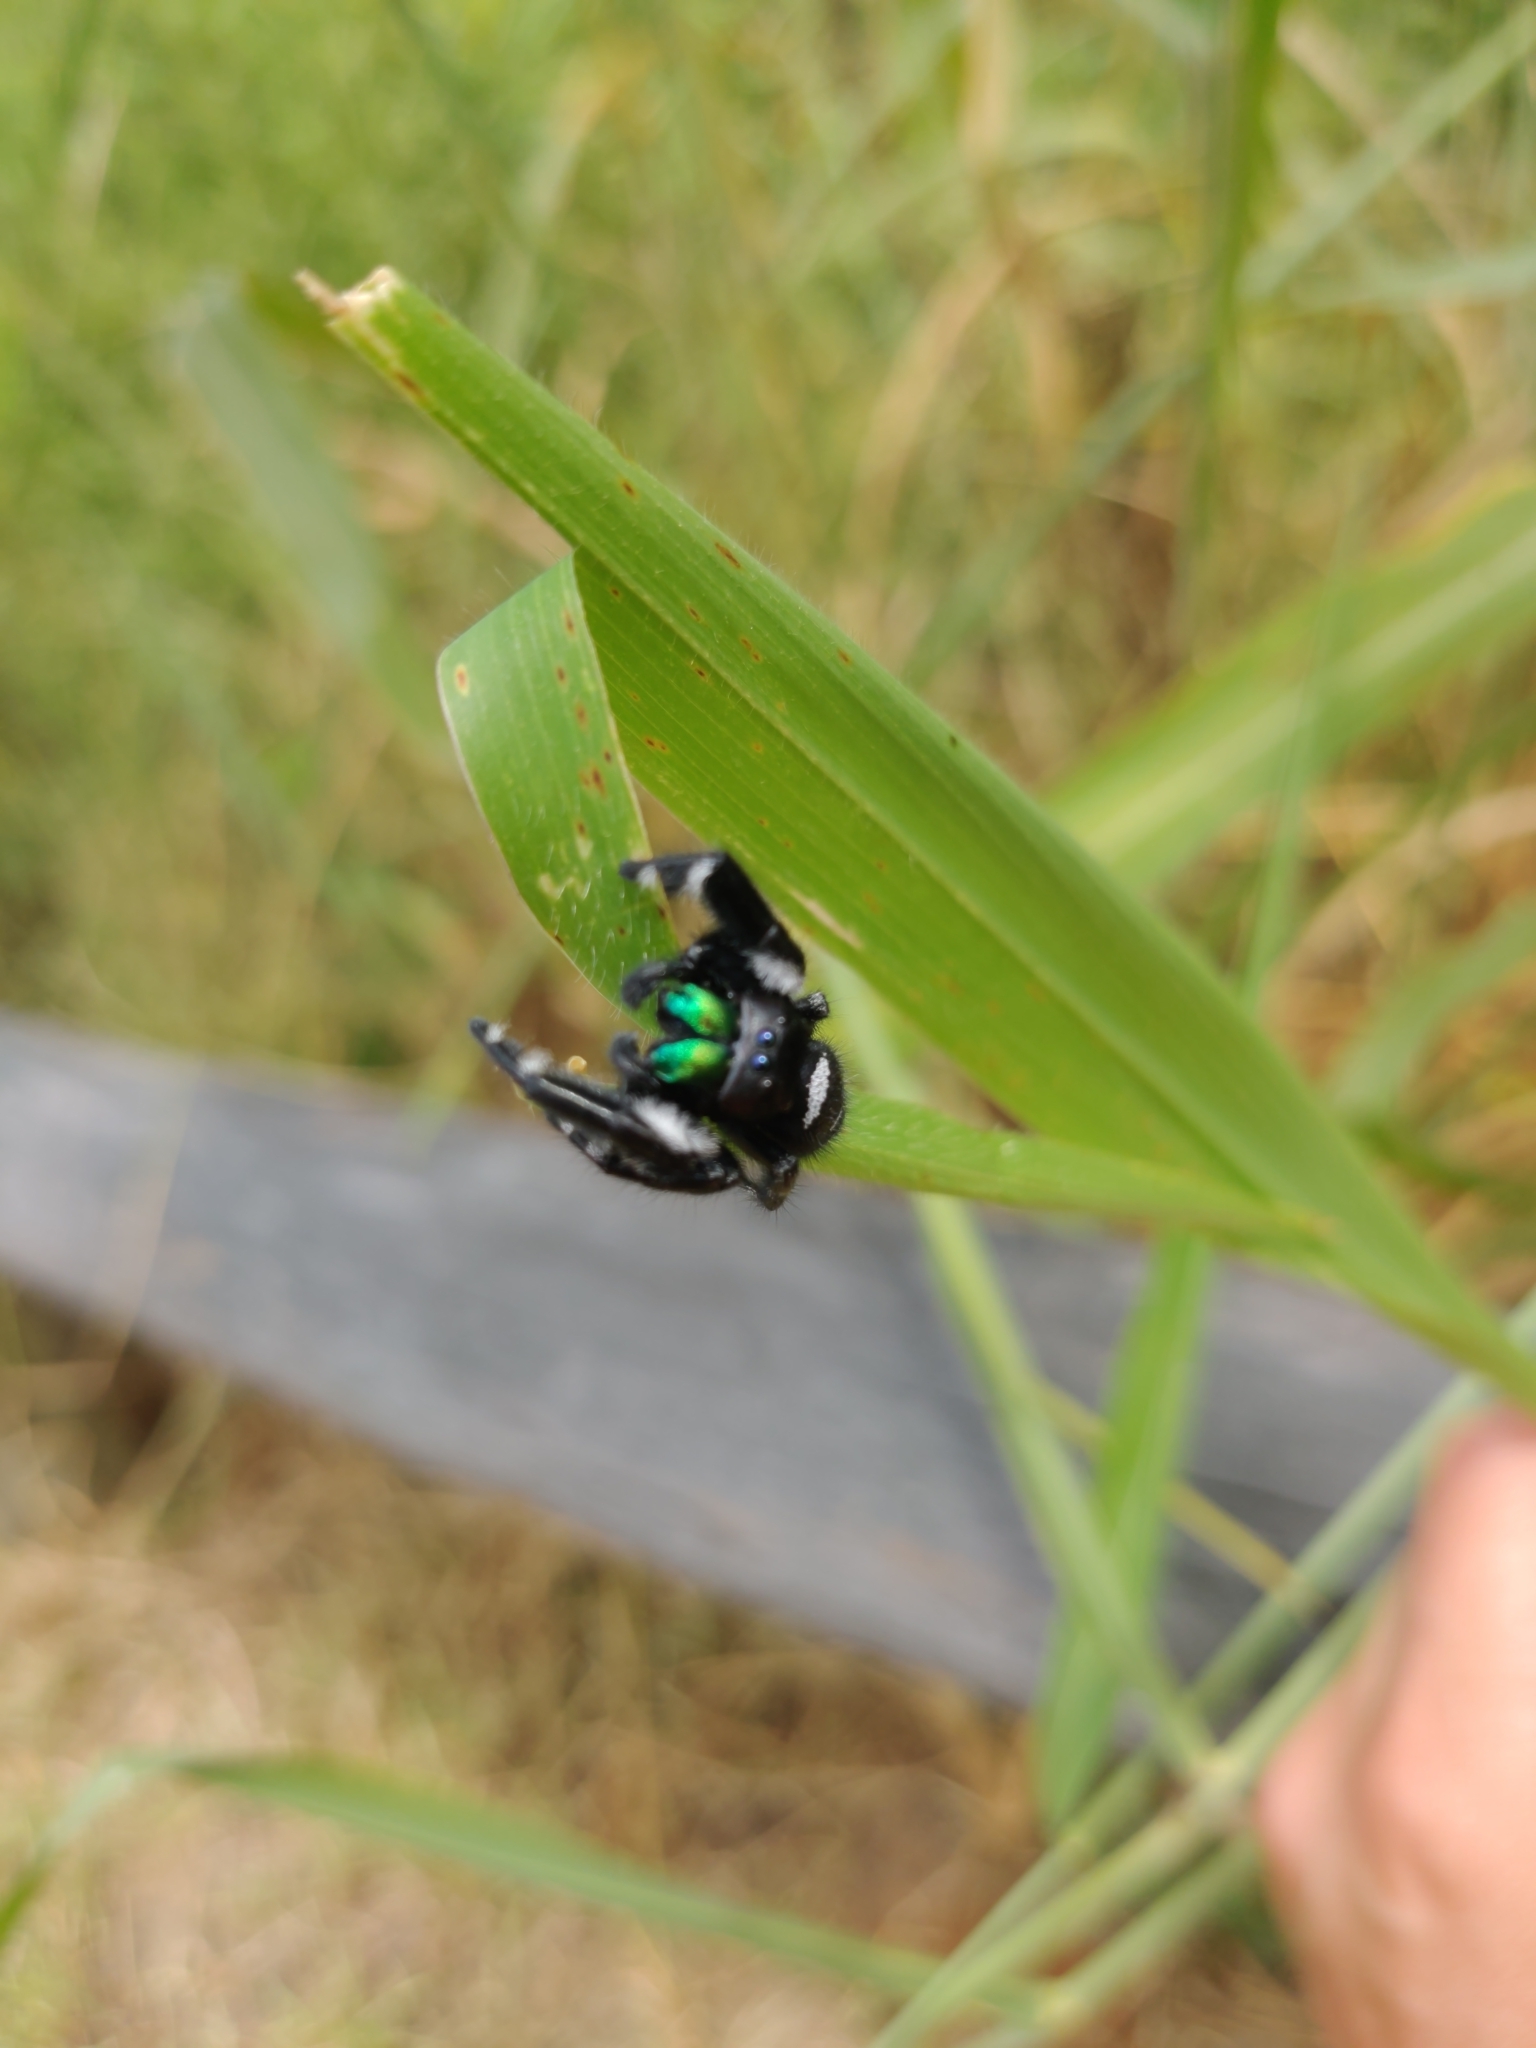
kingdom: Animalia
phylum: Arthropoda
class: Arachnida
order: Araneae
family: Salticidae
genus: Phidippus
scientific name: Phidippus regius
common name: Regal jumper
